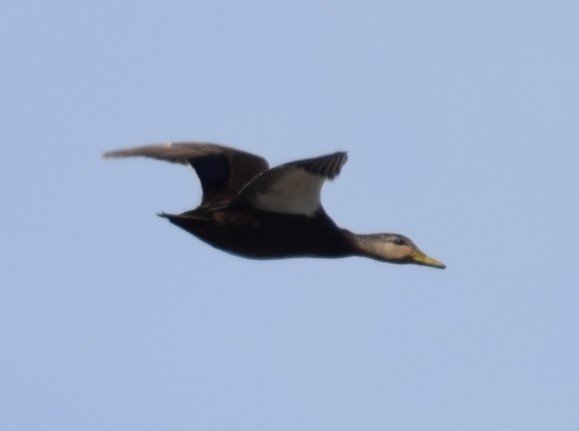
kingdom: Animalia
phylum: Chordata
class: Aves
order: Anseriformes
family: Anatidae
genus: Anas
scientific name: Anas rubripes
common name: American black duck
